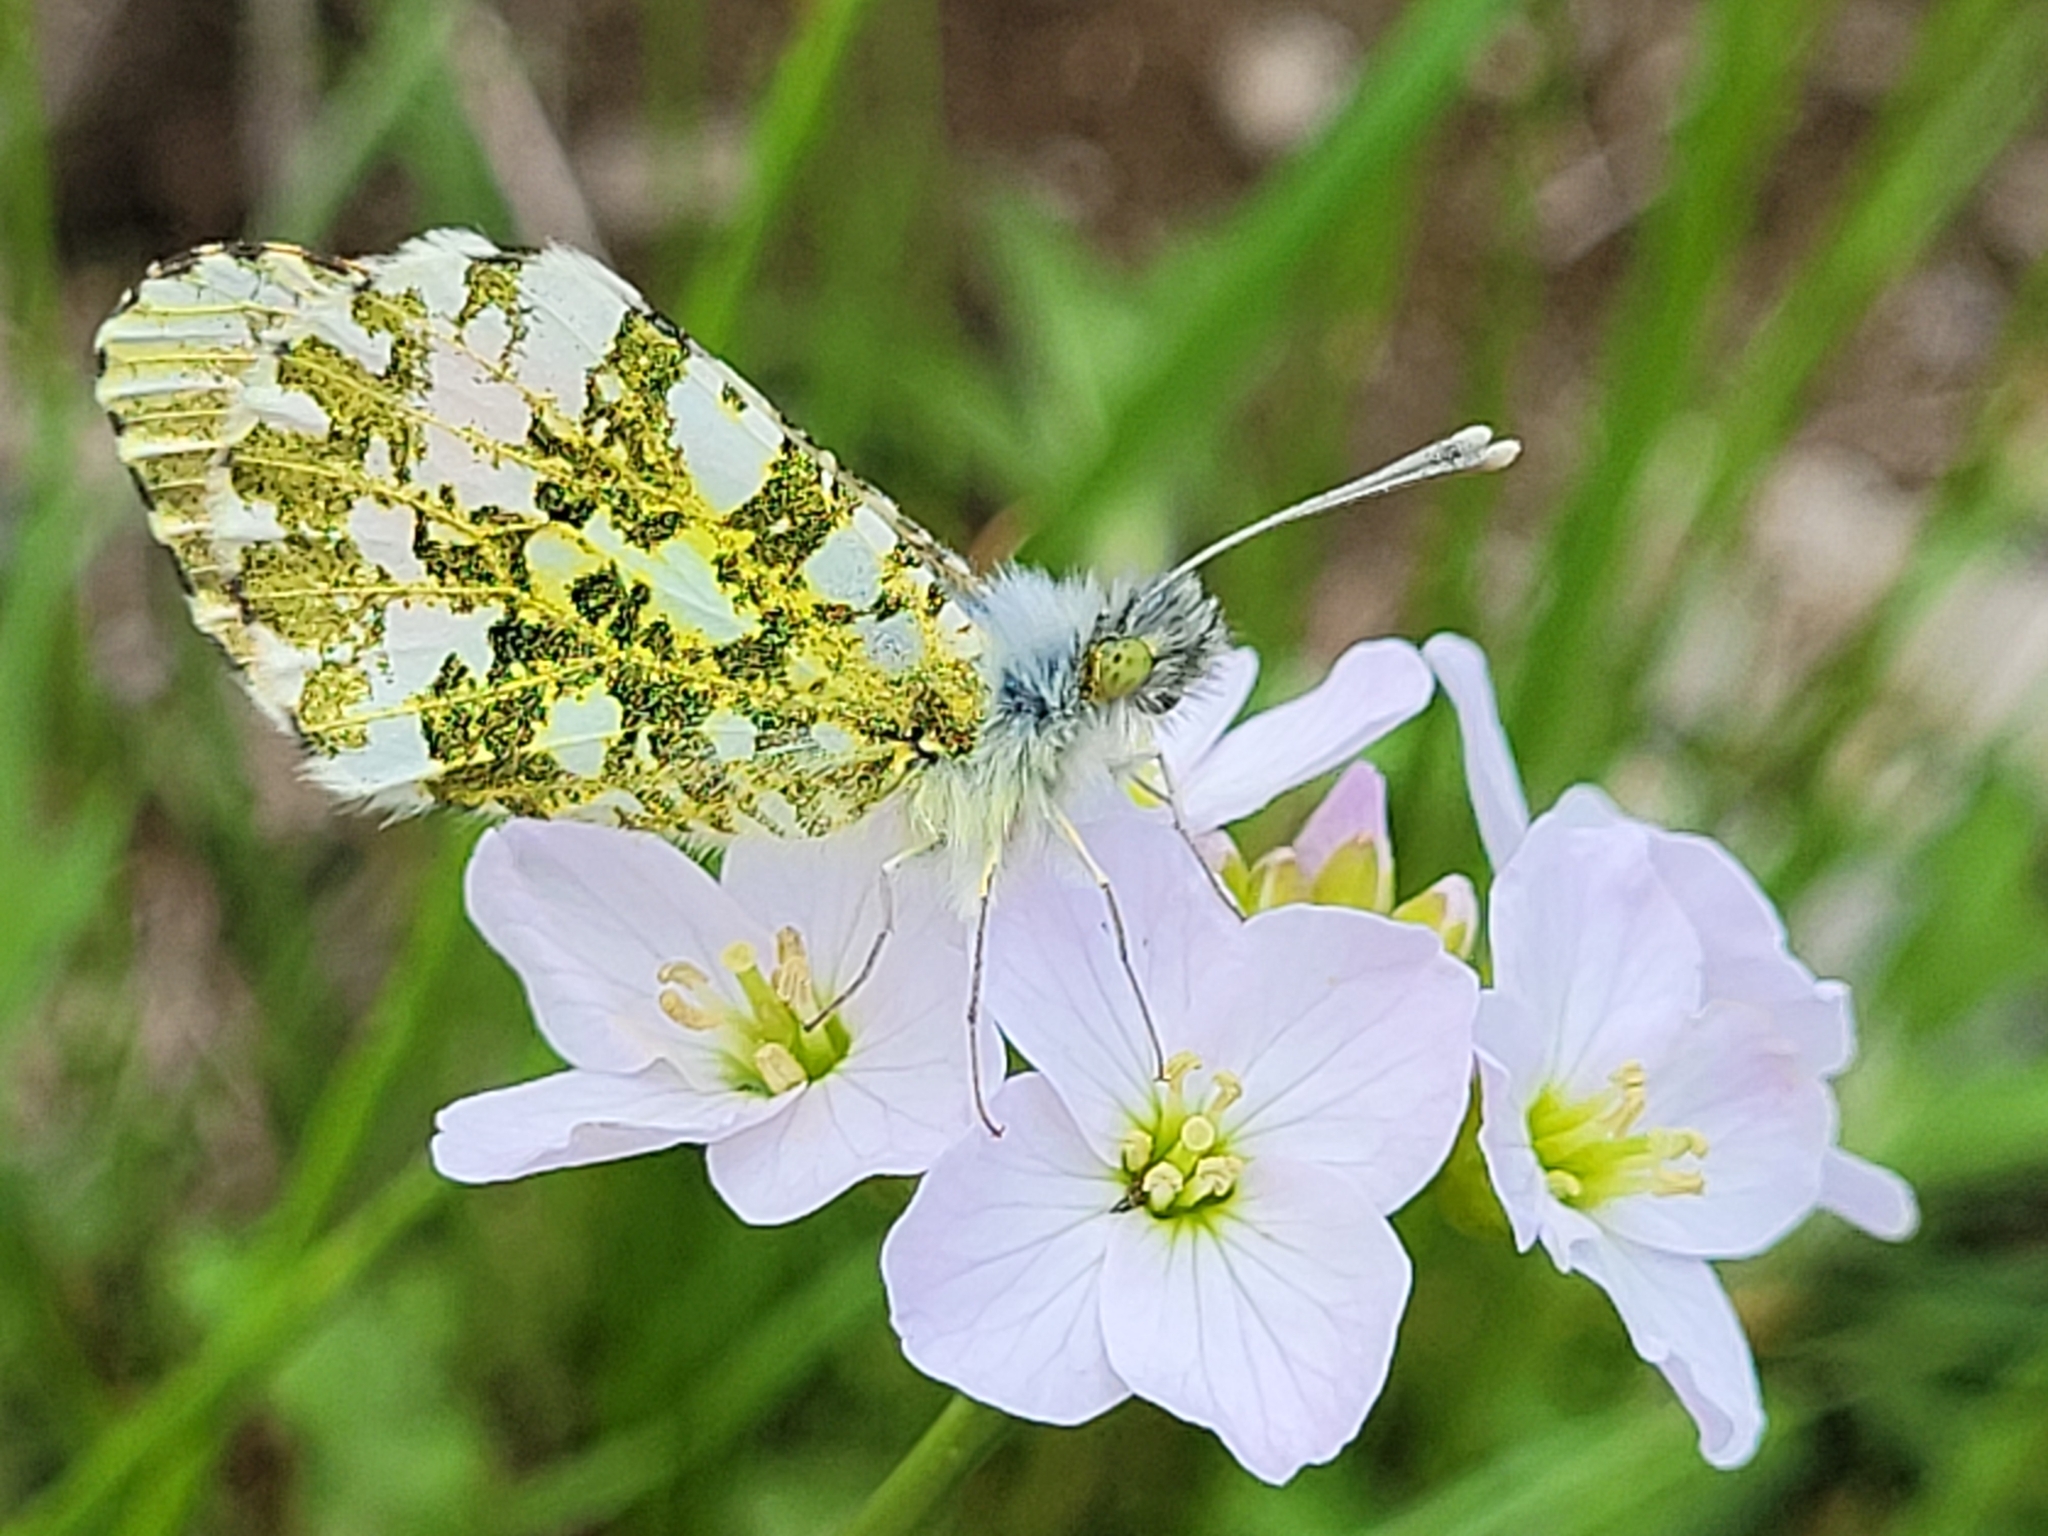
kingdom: Animalia
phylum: Arthropoda
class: Insecta
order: Lepidoptera
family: Pieridae
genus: Anthocharis
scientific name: Anthocharis cardamines
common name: Orange-tip
